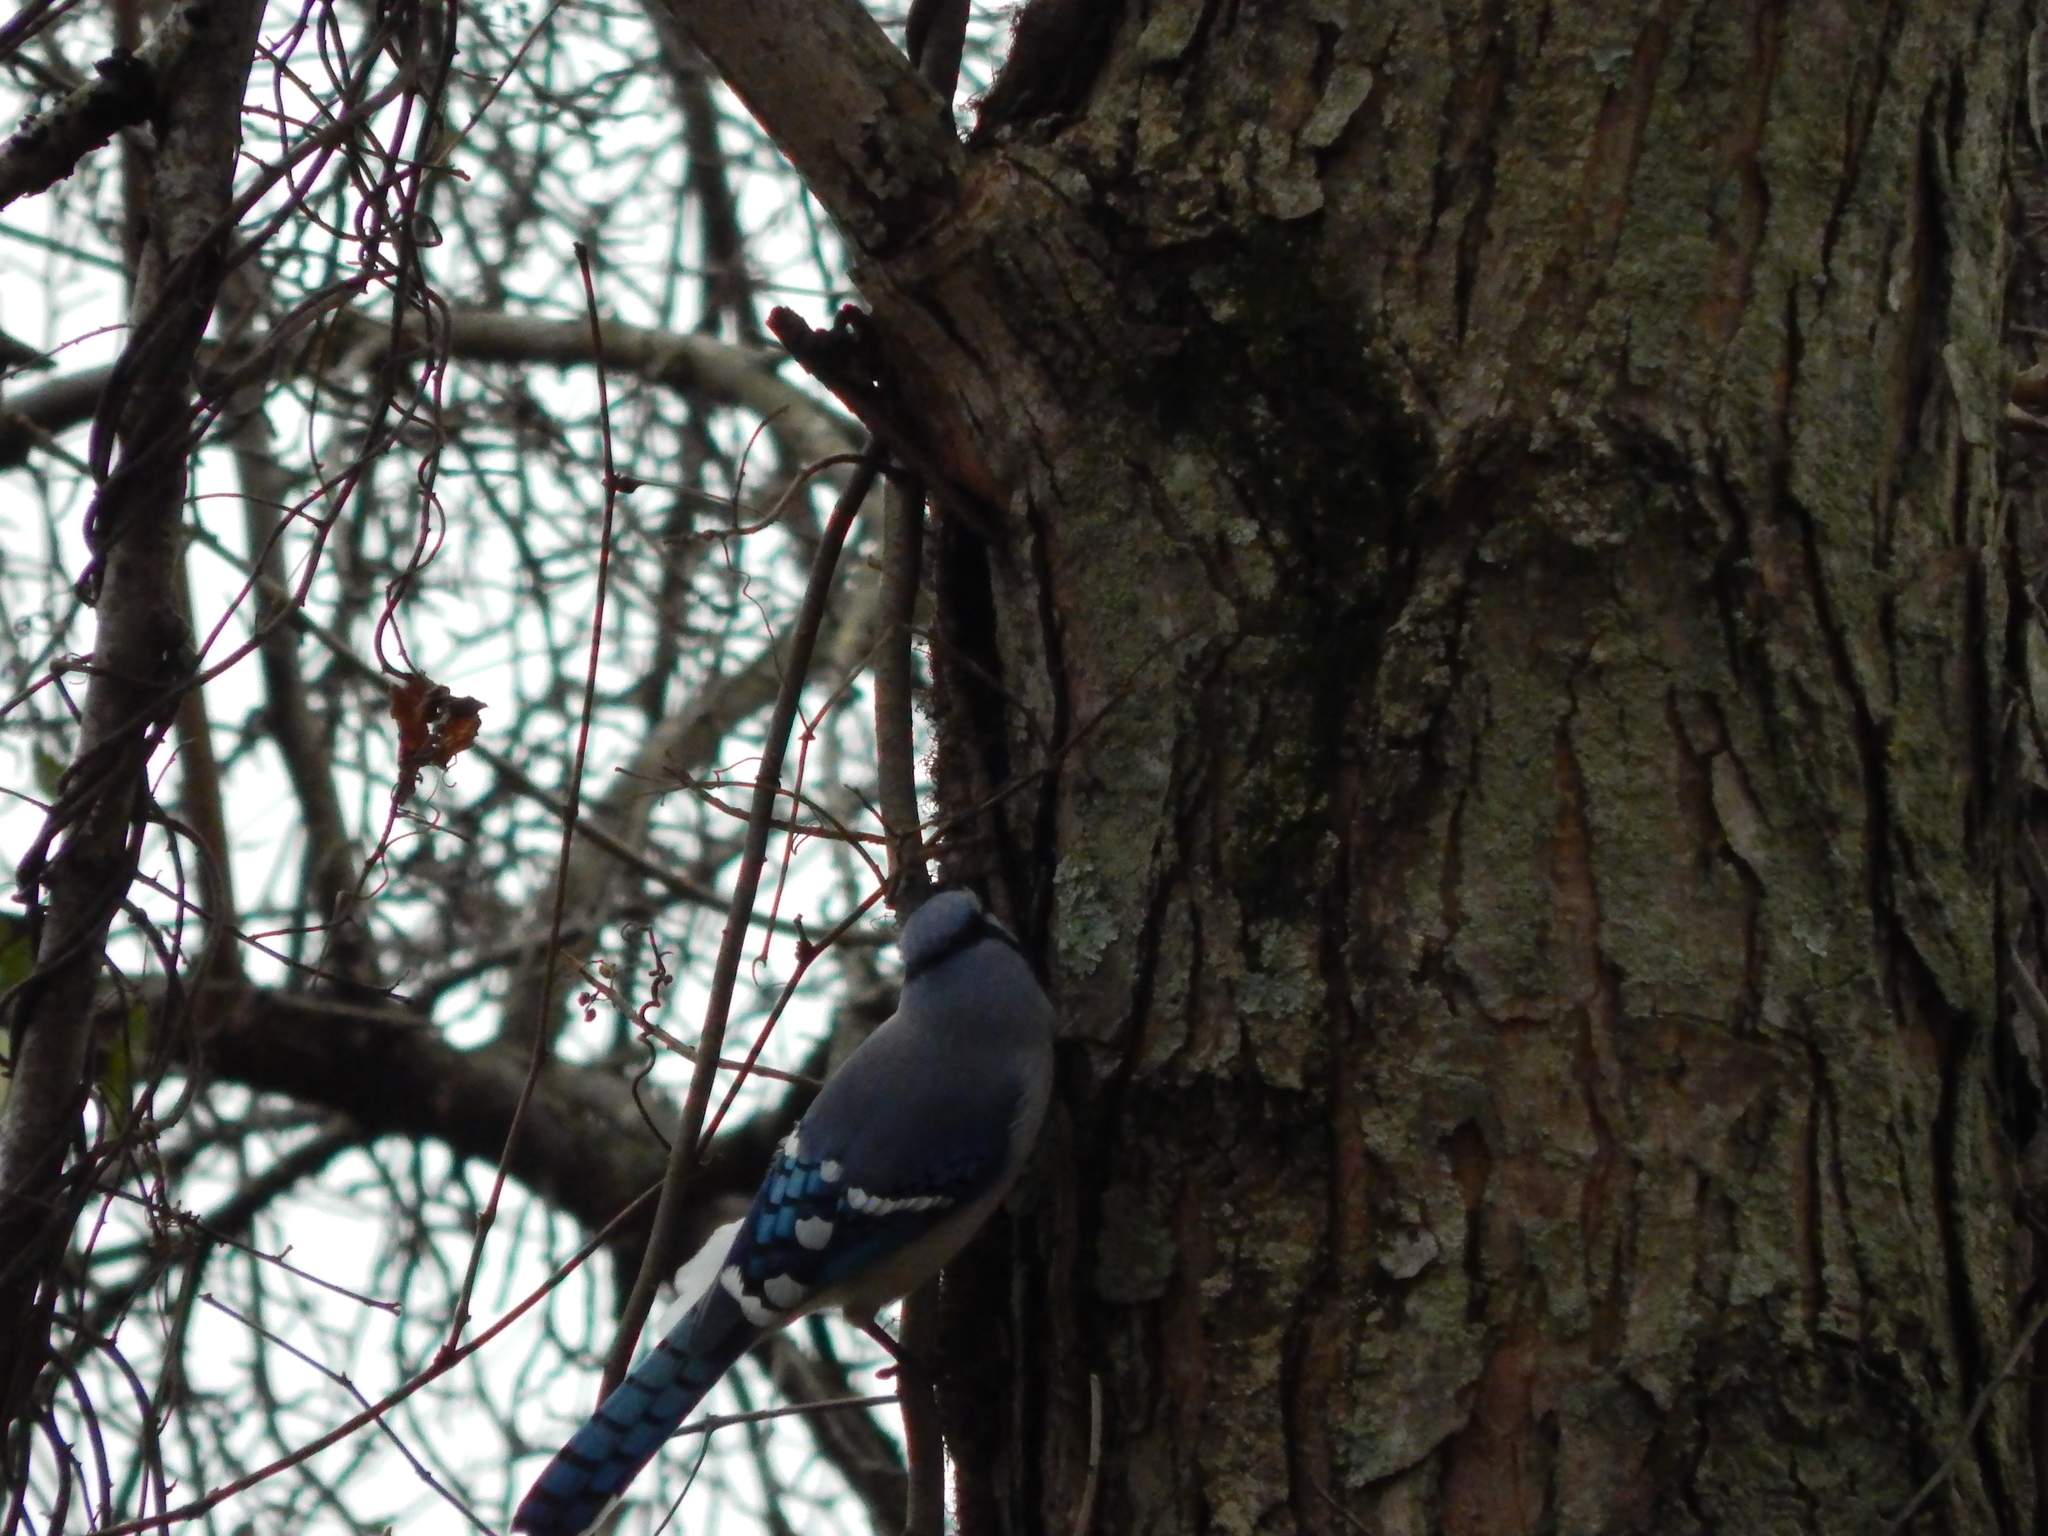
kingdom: Animalia
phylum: Chordata
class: Aves
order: Passeriformes
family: Corvidae
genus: Cyanocitta
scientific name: Cyanocitta cristata
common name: Blue jay
